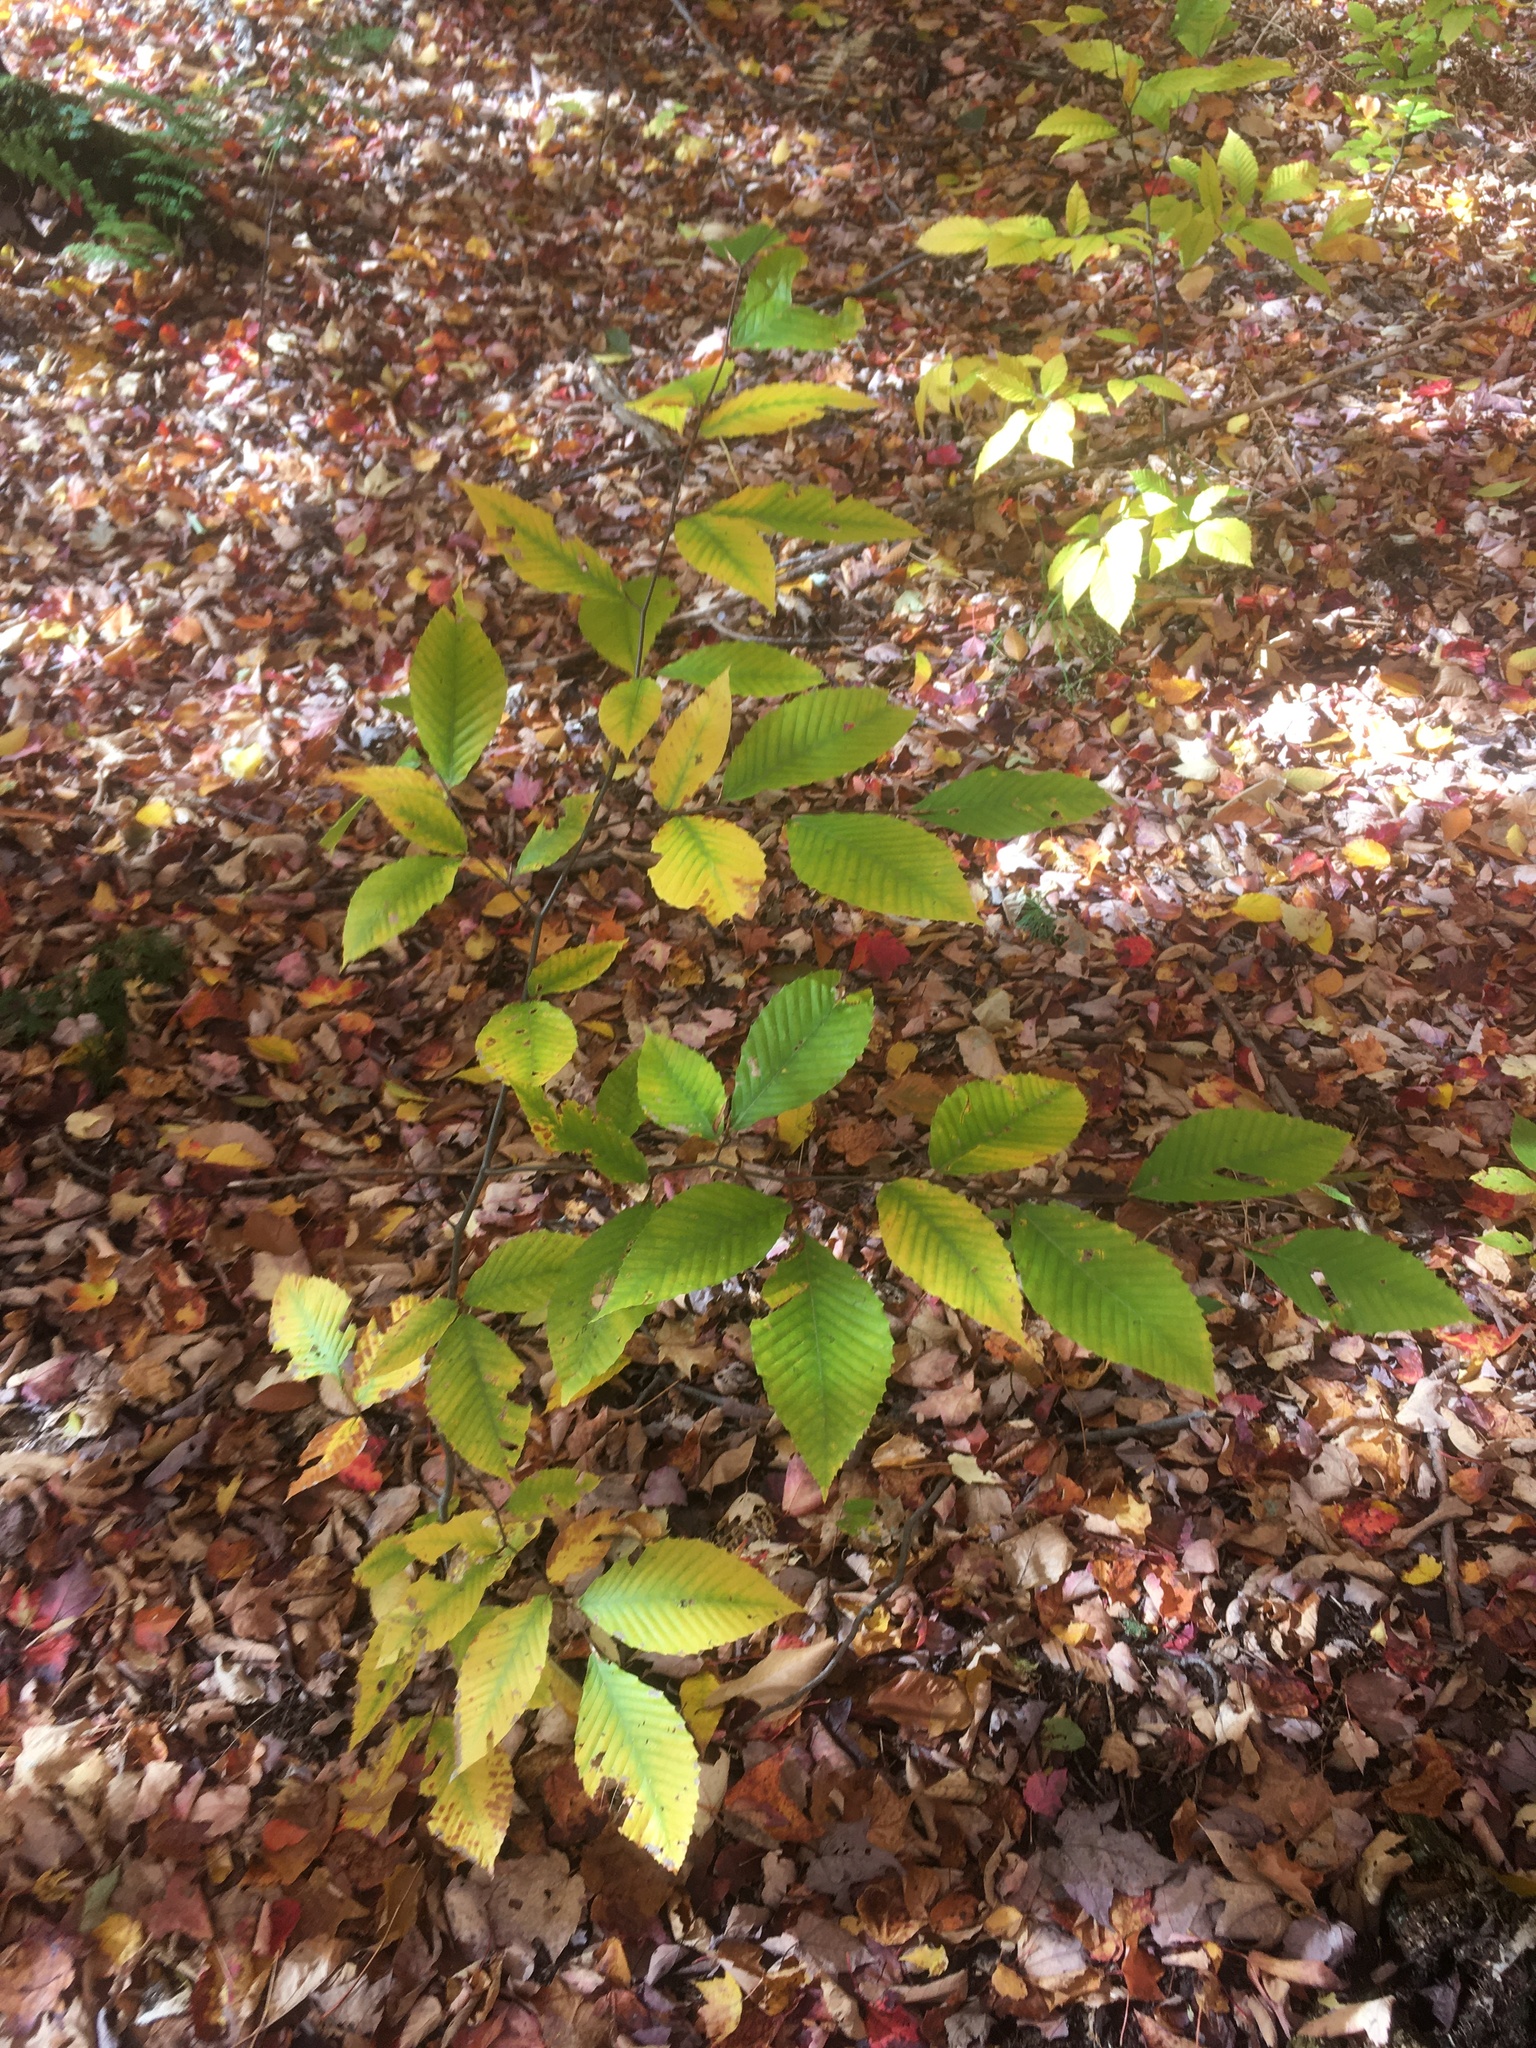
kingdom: Plantae
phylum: Tracheophyta
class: Magnoliopsida
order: Fagales
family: Fagaceae
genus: Fagus
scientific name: Fagus grandifolia
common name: American beech
